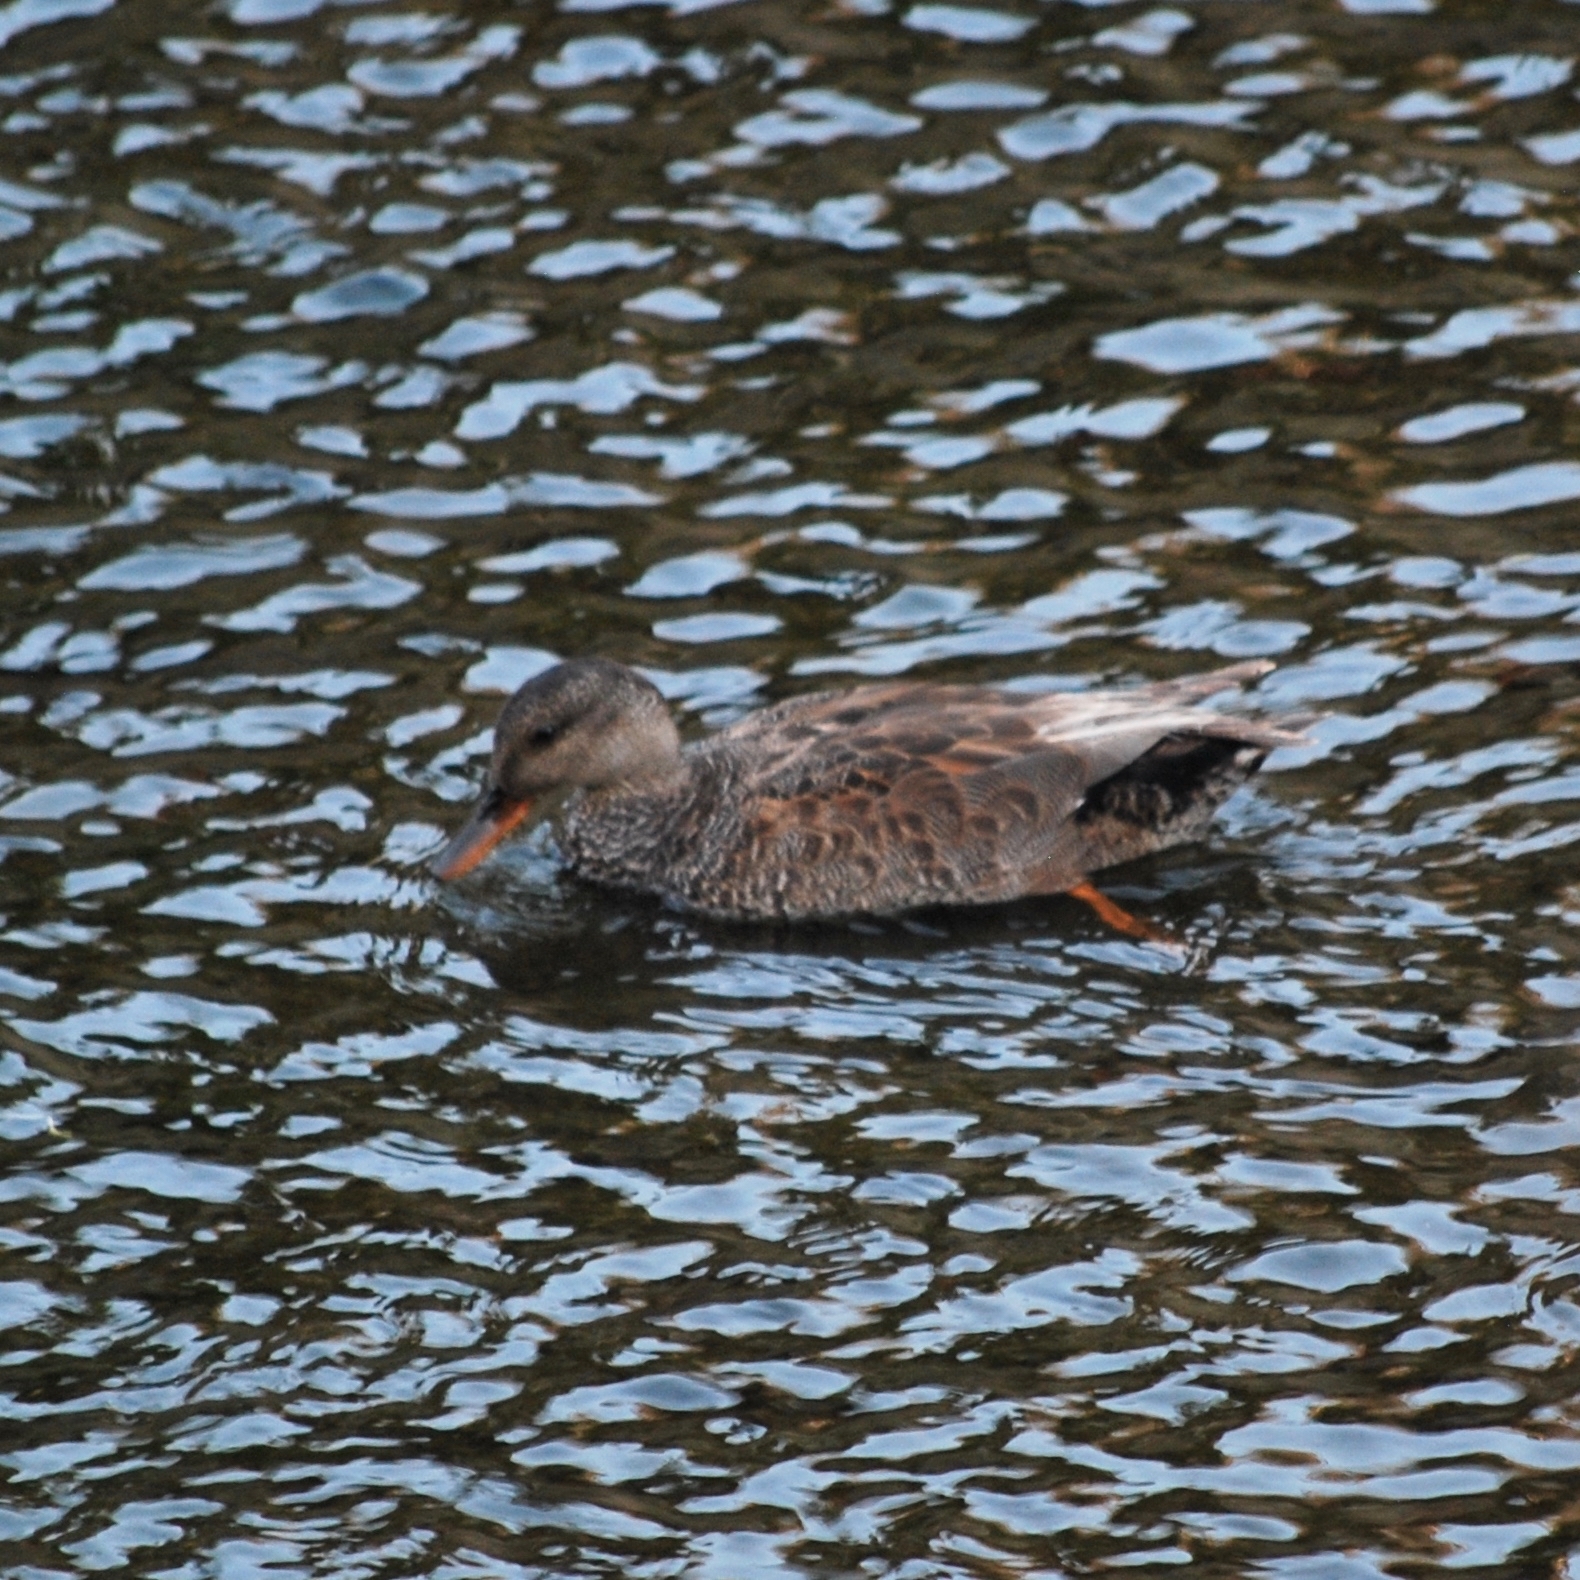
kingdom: Animalia
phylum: Chordata
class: Aves
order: Anseriformes
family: Anatidae
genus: Mareca
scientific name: Mareca strepera
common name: Gadwall
